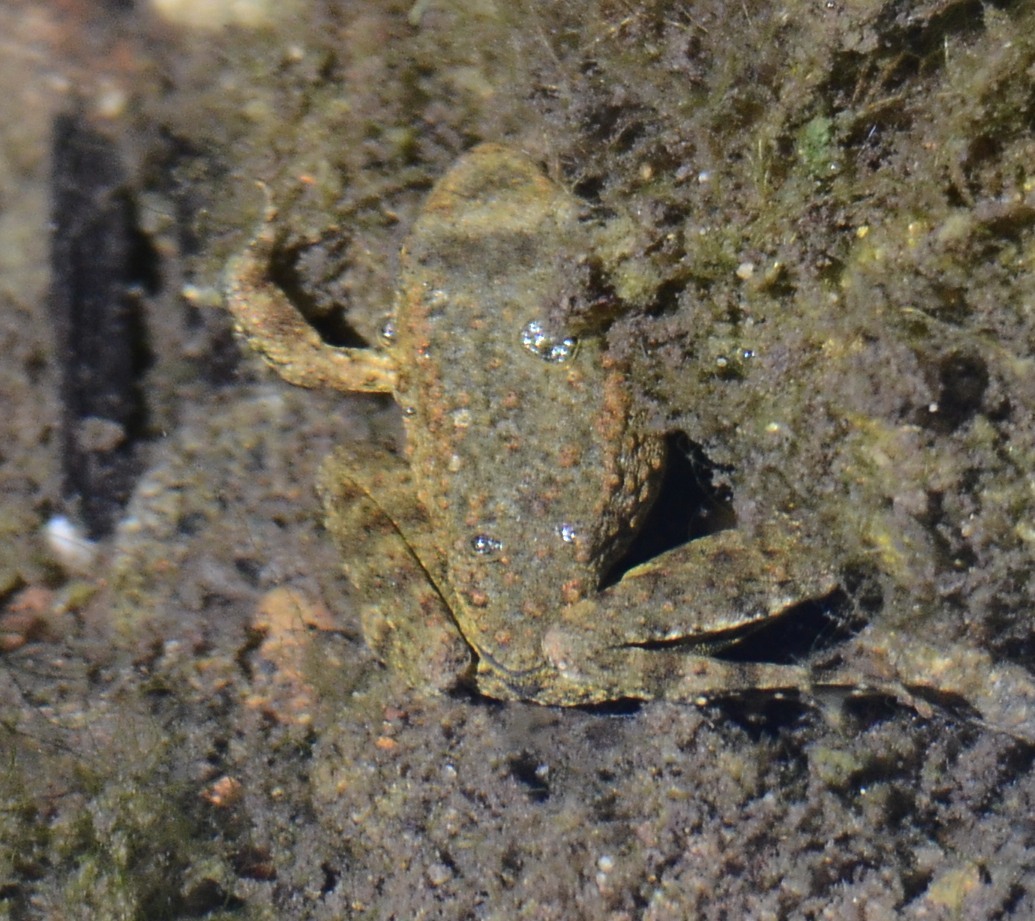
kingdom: Animalia
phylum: Chordata
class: Amphibia
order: Anura
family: Ranidae
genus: Rana
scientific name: Rana boylii
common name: Foothill yellow-legged frog
